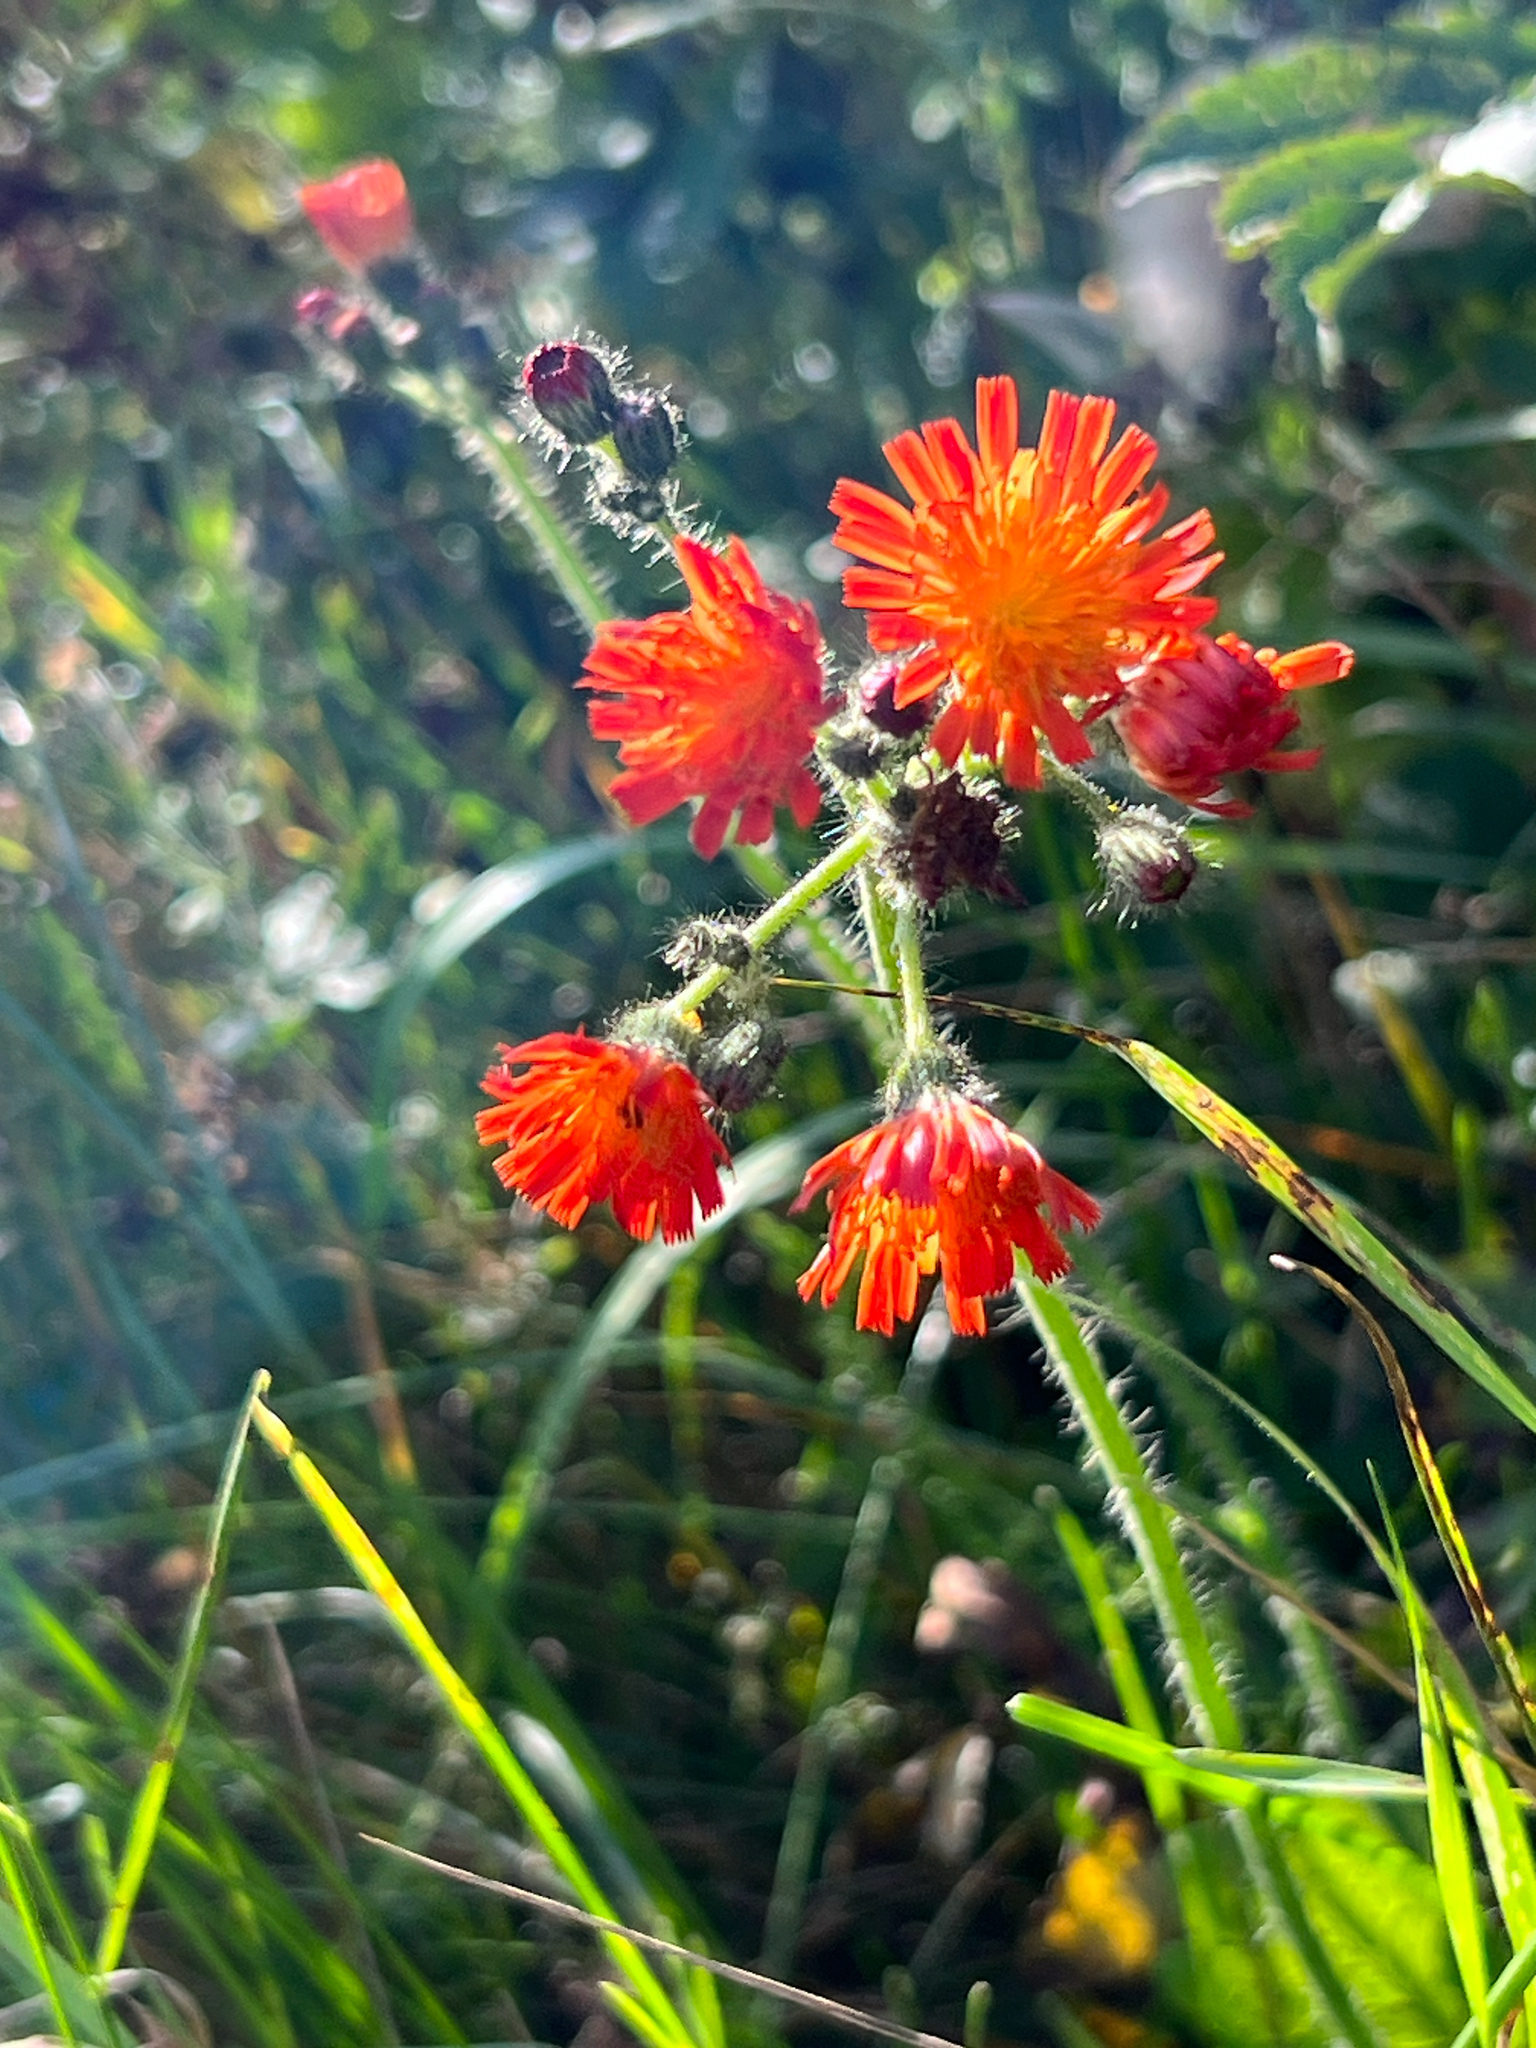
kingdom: Plantae
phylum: Tracheophyta
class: Magnoliopsida
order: Asterales
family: Asteraceae
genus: Pilosella
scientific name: Pilosella aurantiaca
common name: Fox-and-cubs
